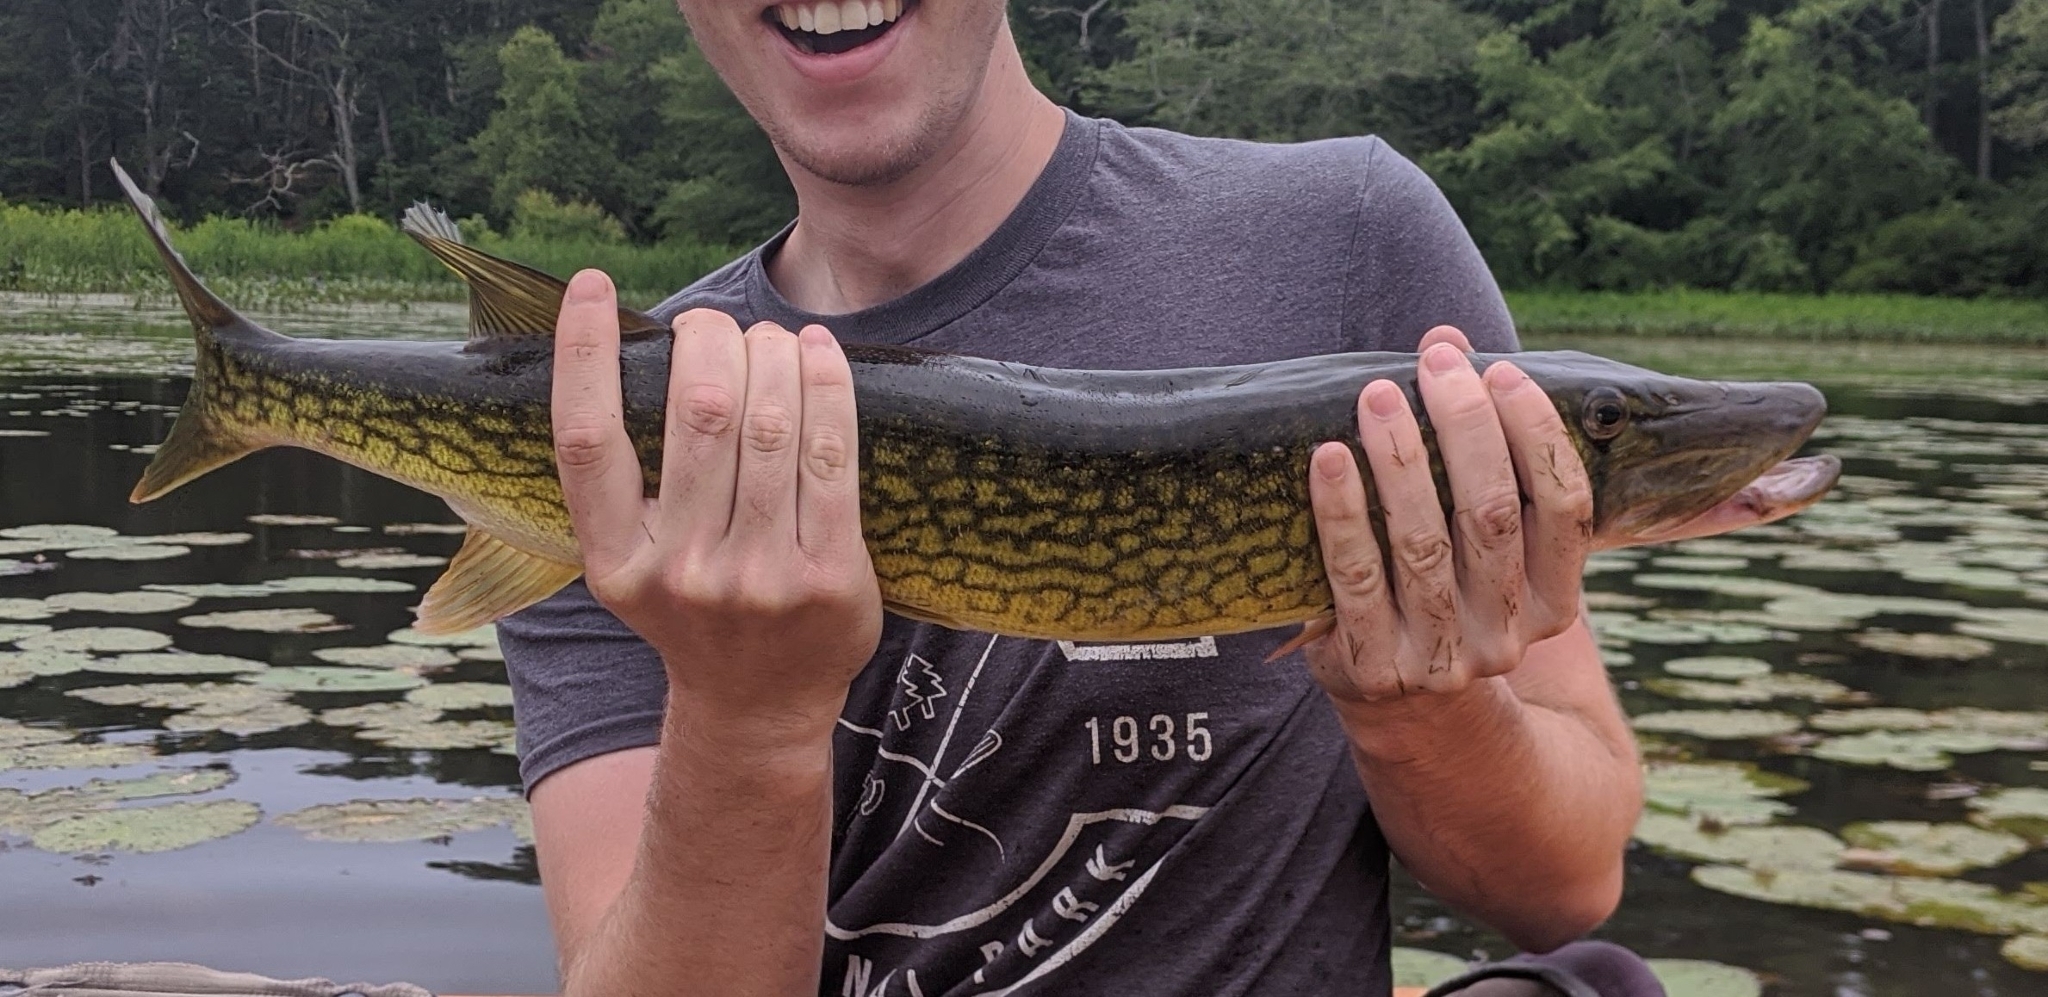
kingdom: Animalia
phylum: Chordata
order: Esociformes
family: Esocidae
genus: Esox
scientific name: Esox niger
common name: Chain pickerel
